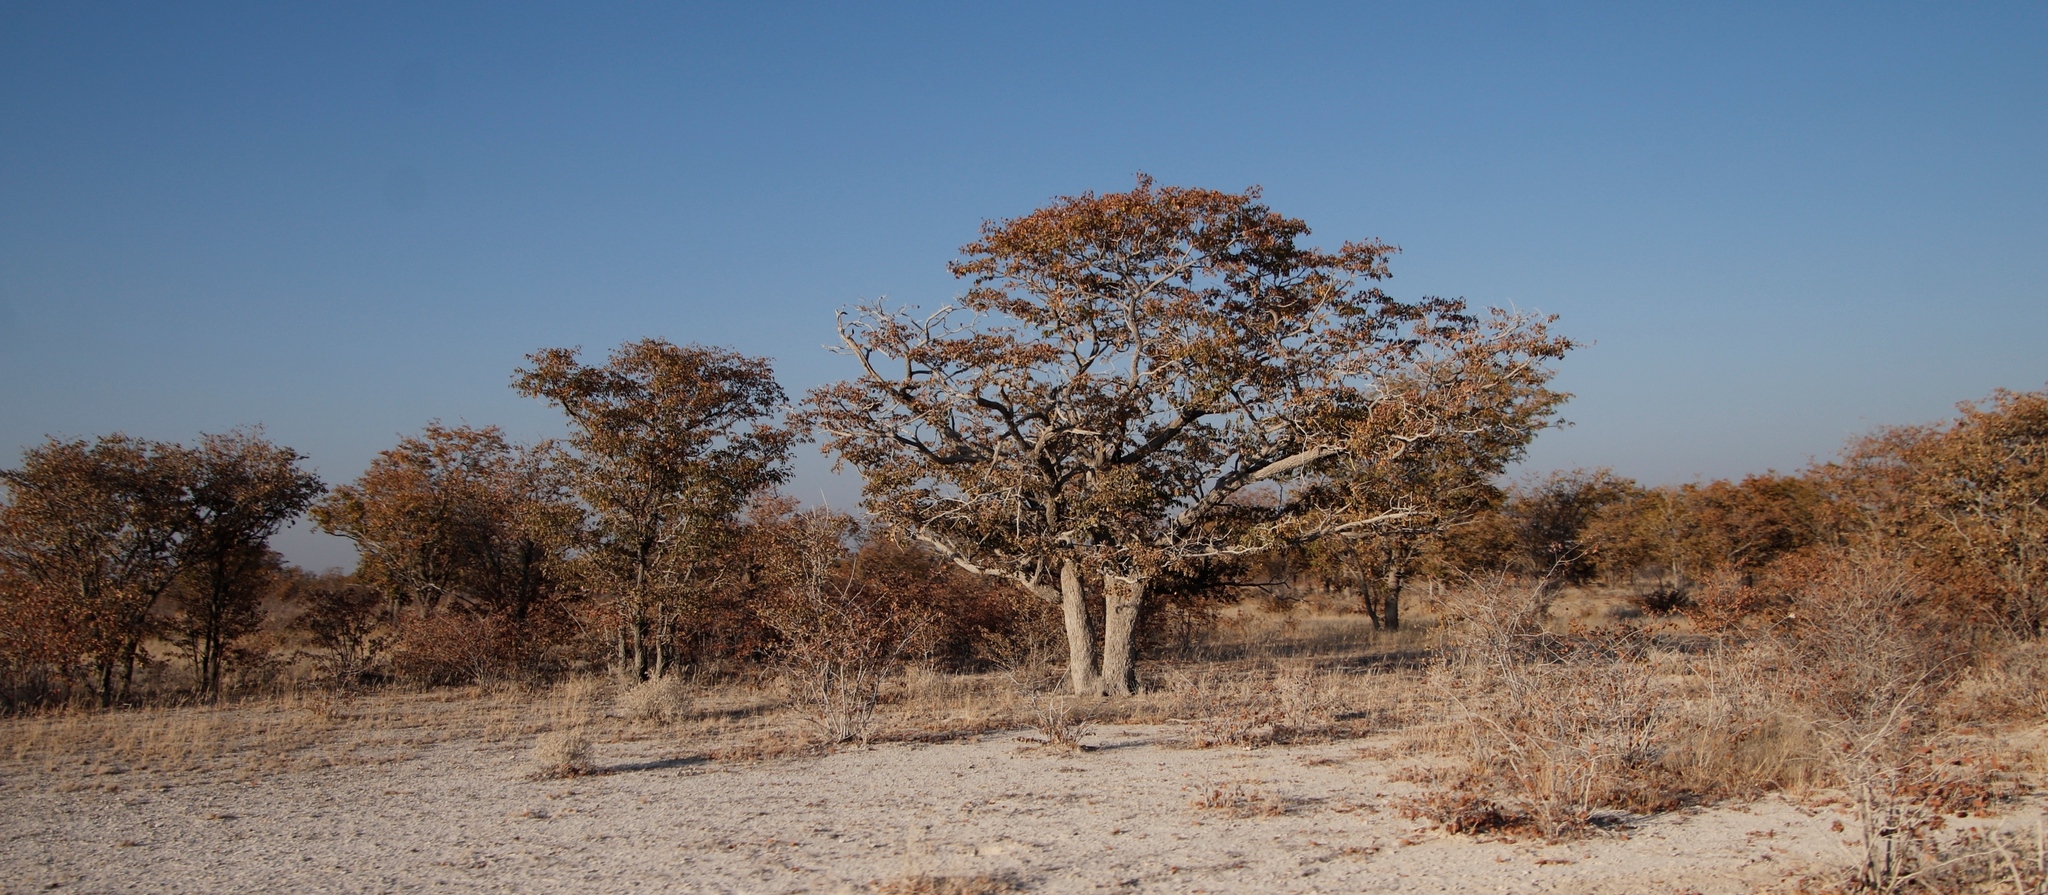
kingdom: Plantae
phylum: Tracheophyta
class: Magnoliopsida
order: Fabales
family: Fabaceae
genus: Colophospermum
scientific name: Colophospermum mopane
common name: Mopane
